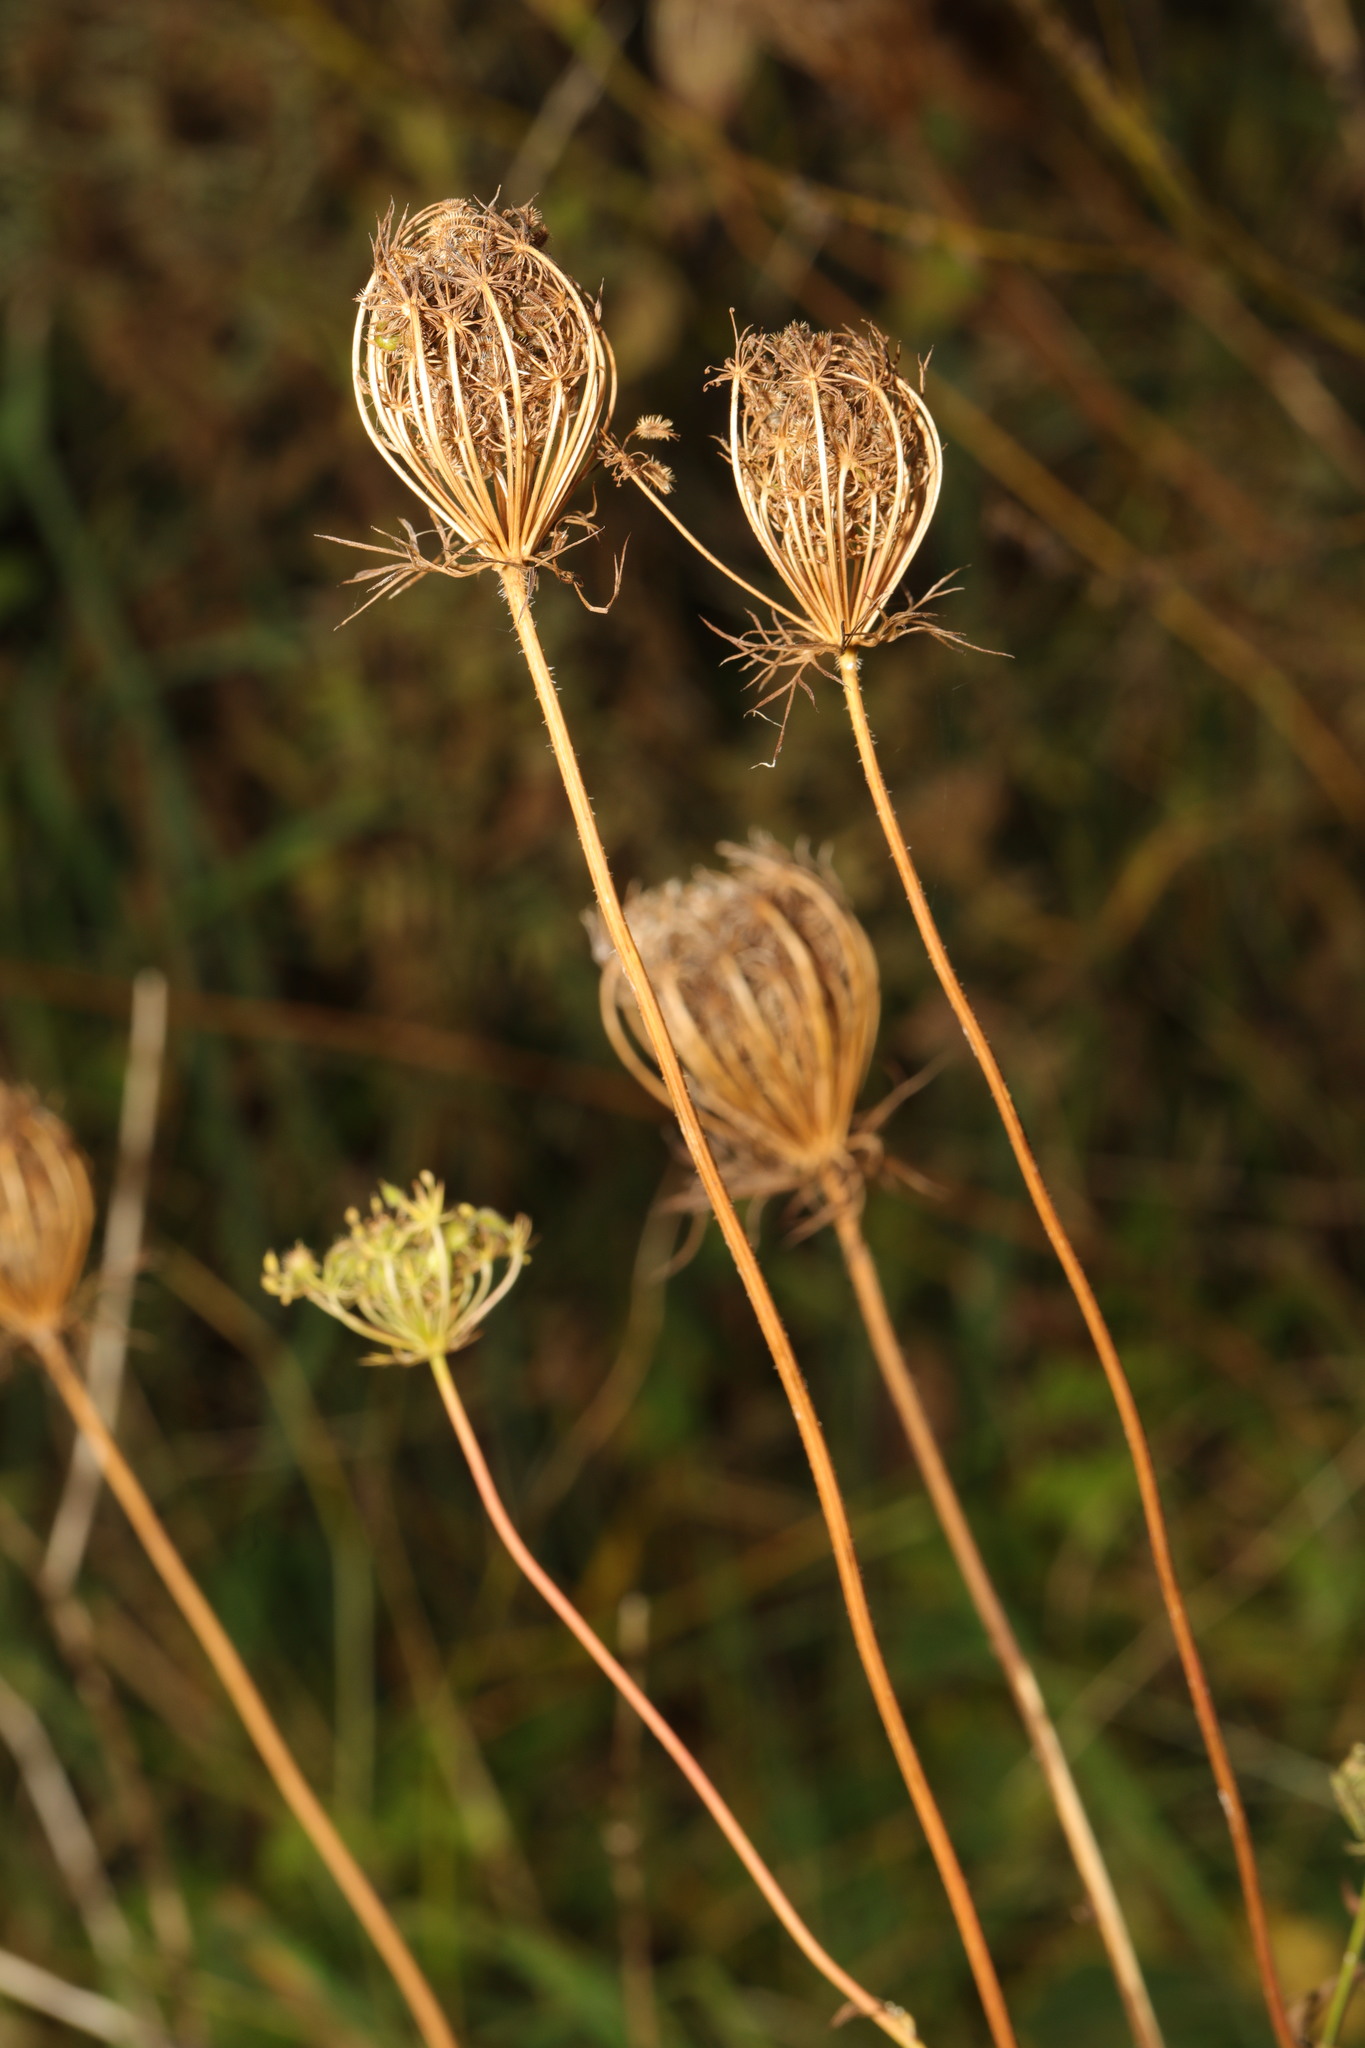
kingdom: Plantae
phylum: Tracheophyta
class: Magnoliopsida
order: Apiales
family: Apiaceae
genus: Daucus
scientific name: Daucus carota
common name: Wild carrot
